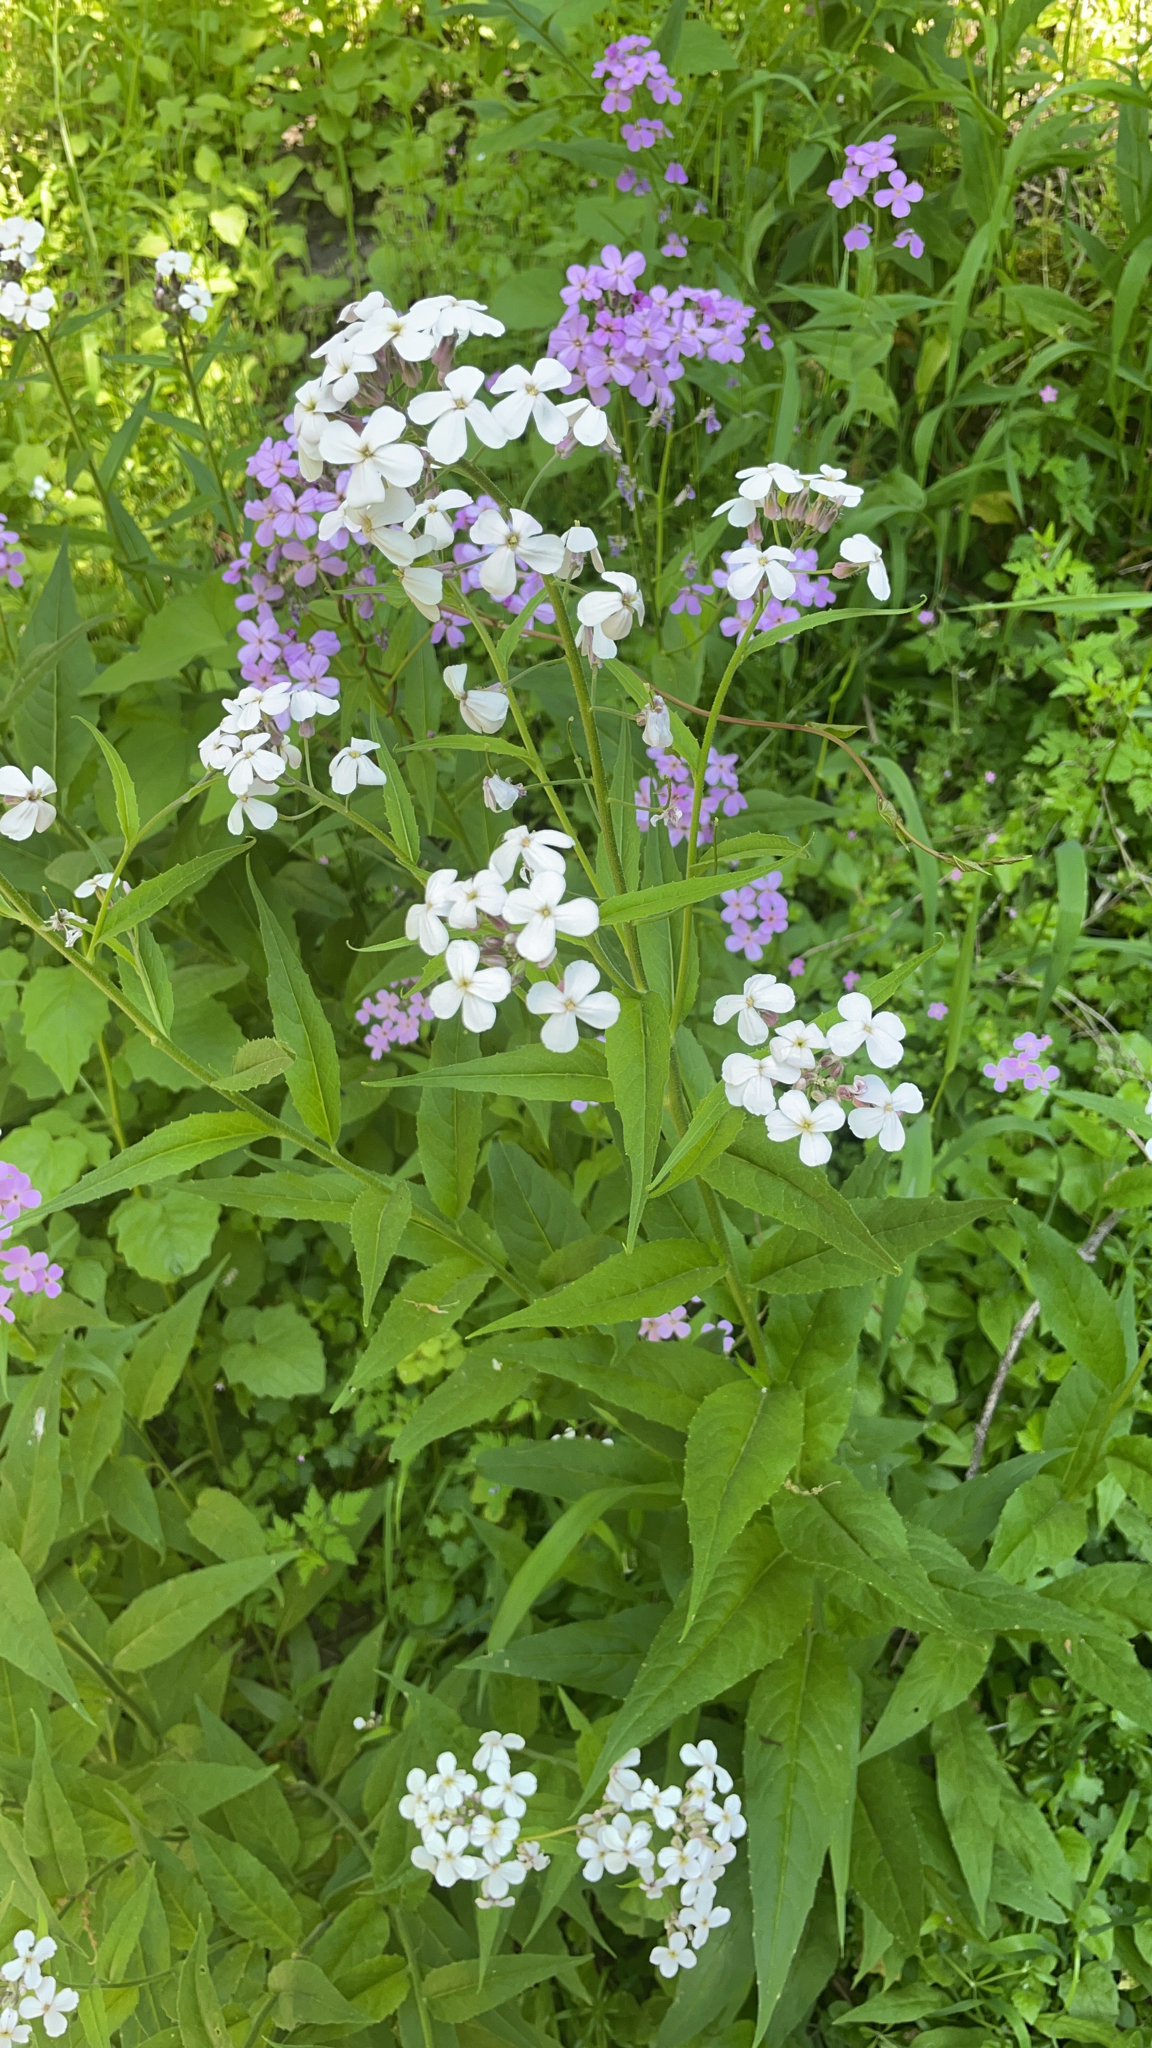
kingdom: Plantae
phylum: Tracheophyta
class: Magnoliopsida
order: Brassicales
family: Brassicaceae
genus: Hesperis
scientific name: Hesperis matronalis
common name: Dame's-violet
